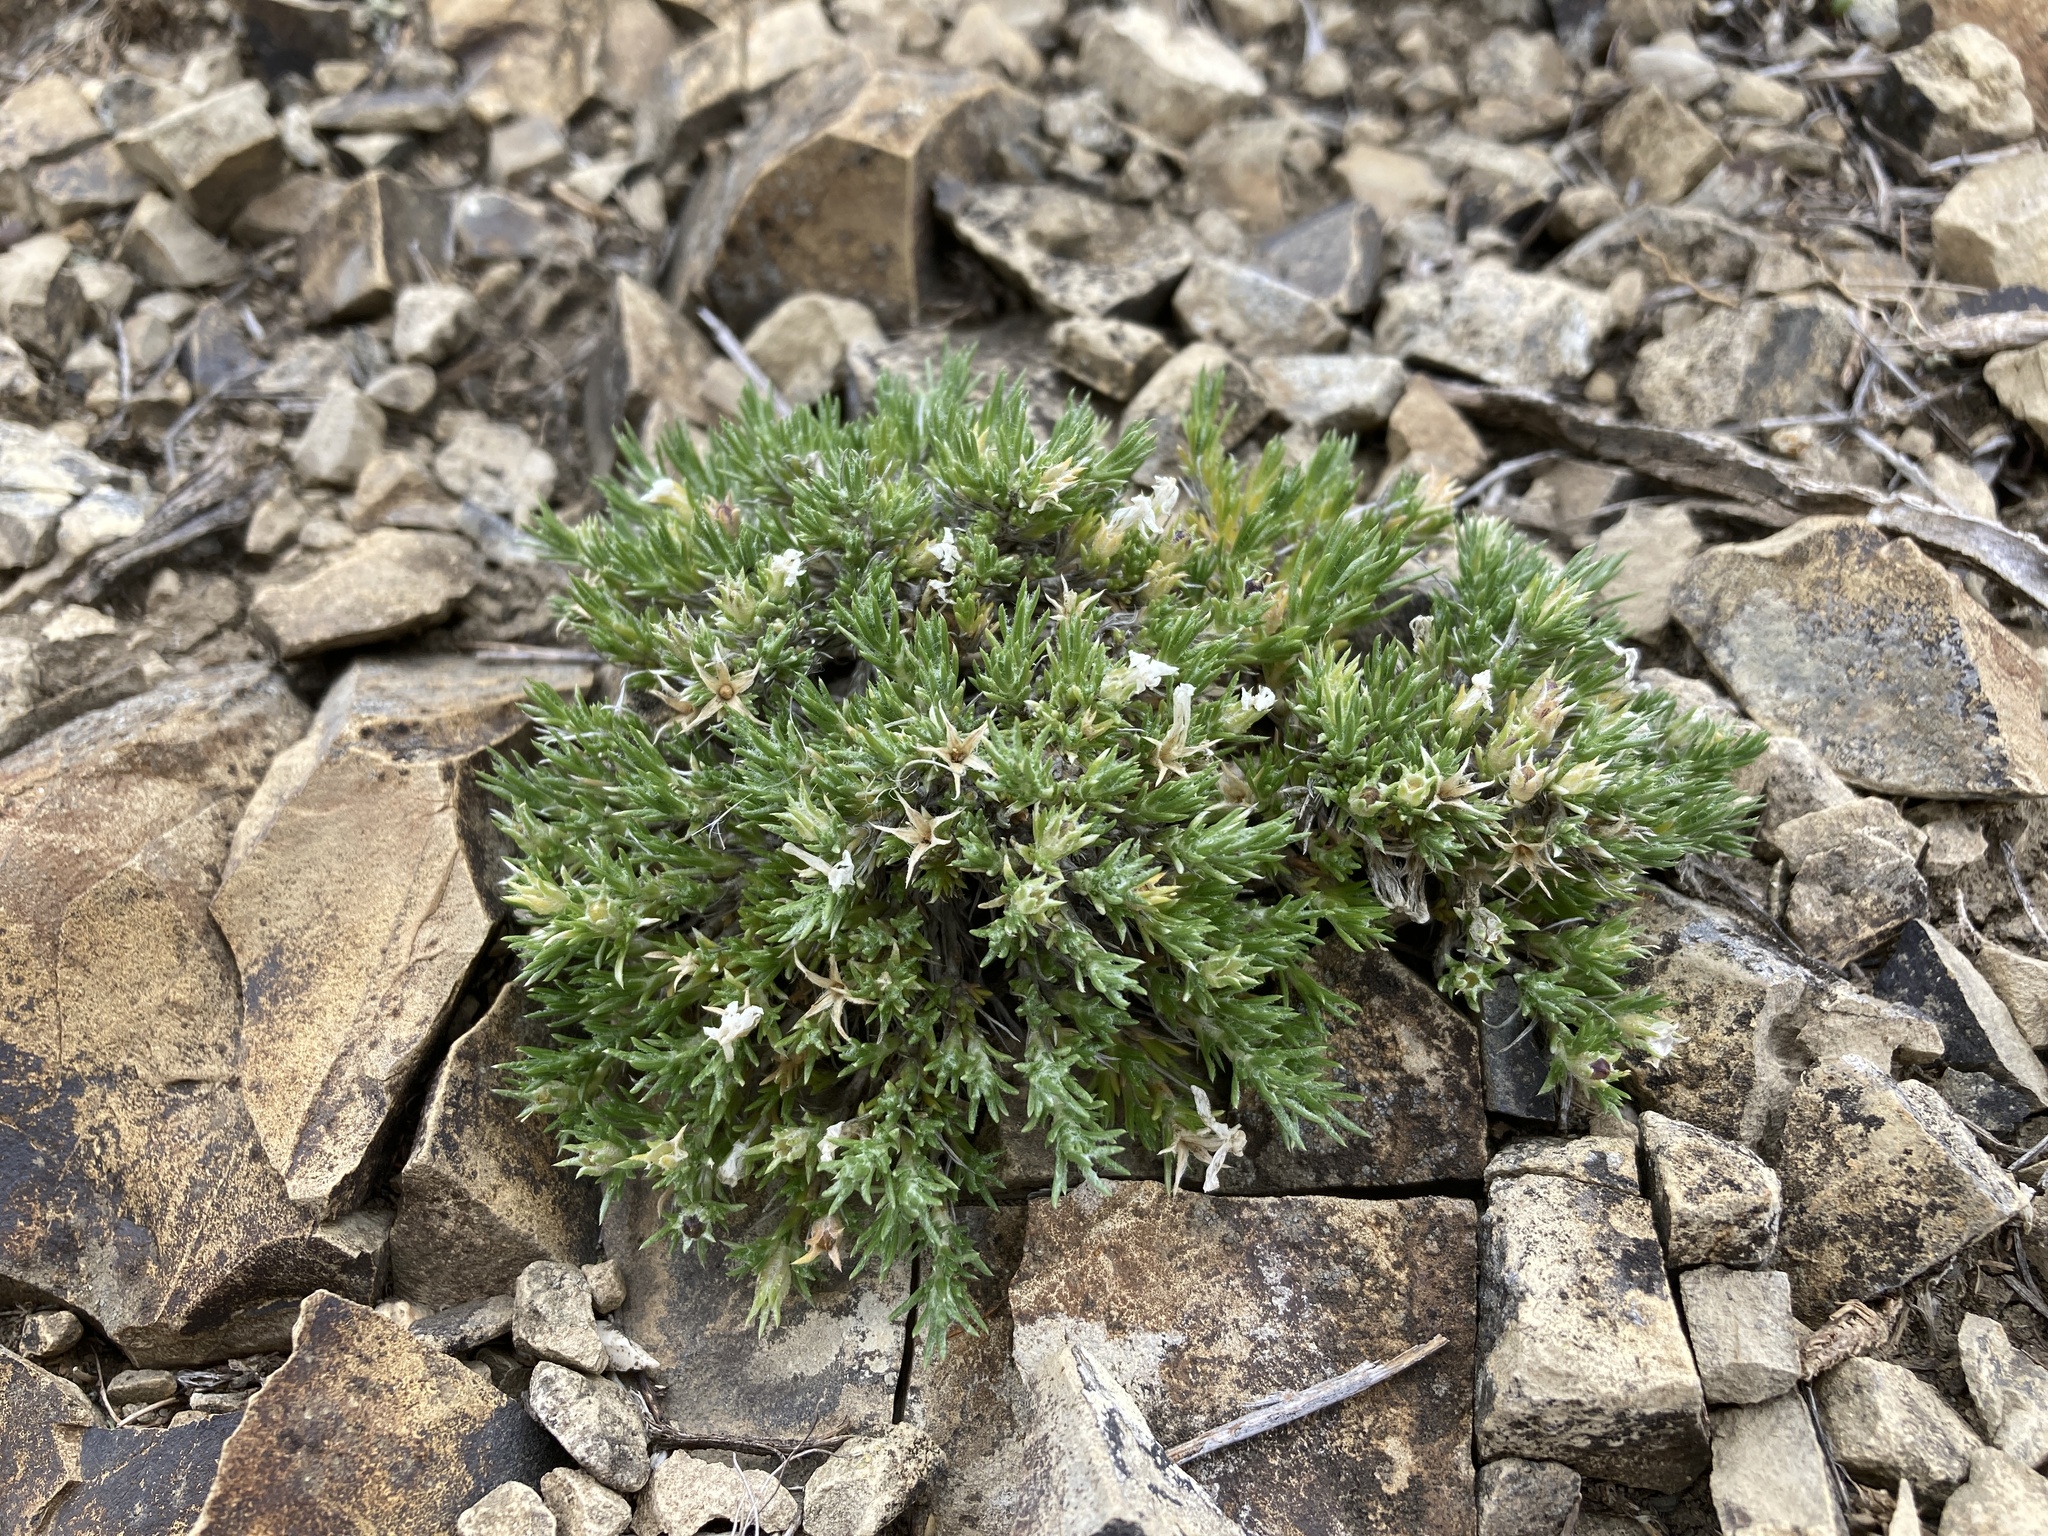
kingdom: Plantae
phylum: Tracheophyta
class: Magnoliopsida
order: Ericales
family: Polemoniaceae
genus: Phlox
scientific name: Phlox hoodii
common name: Moss phlox
